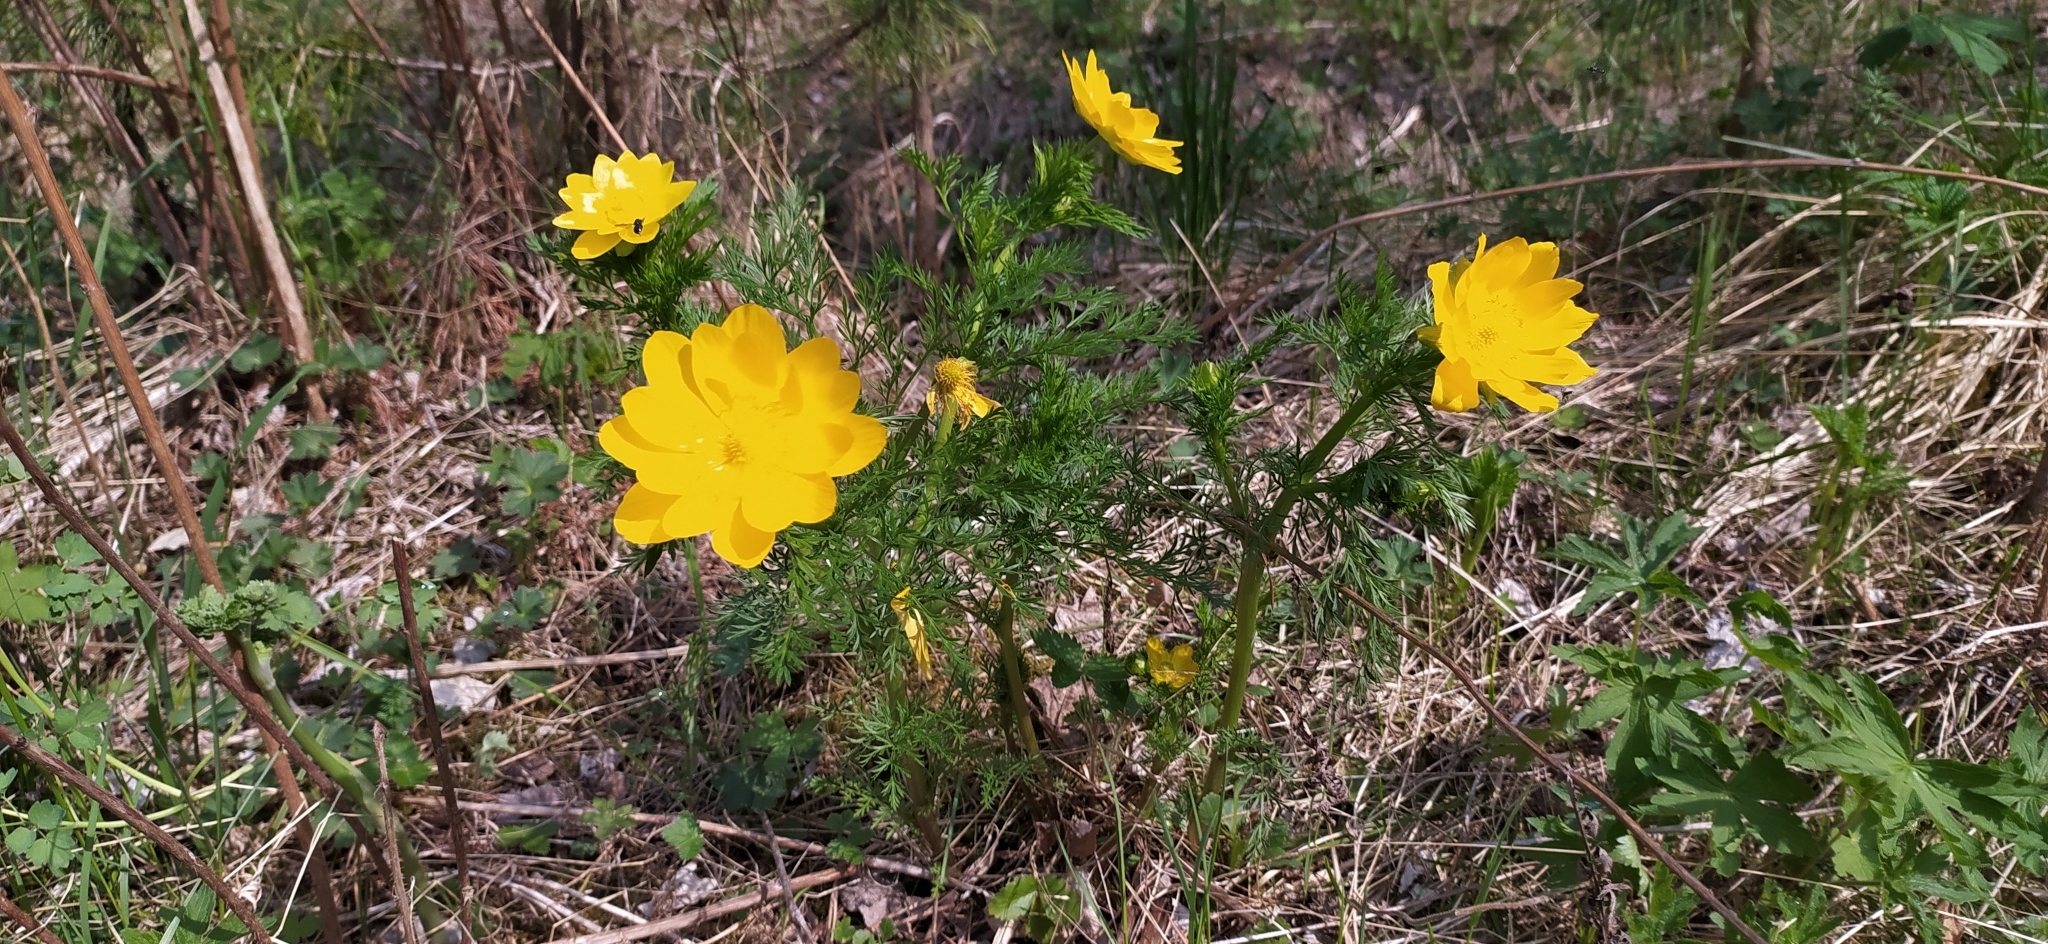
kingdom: Plantae
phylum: Tracheophyta
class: Magnoliopsida
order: Ranunculales
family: Ranunculaceae
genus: Adonis
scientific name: Adonis
